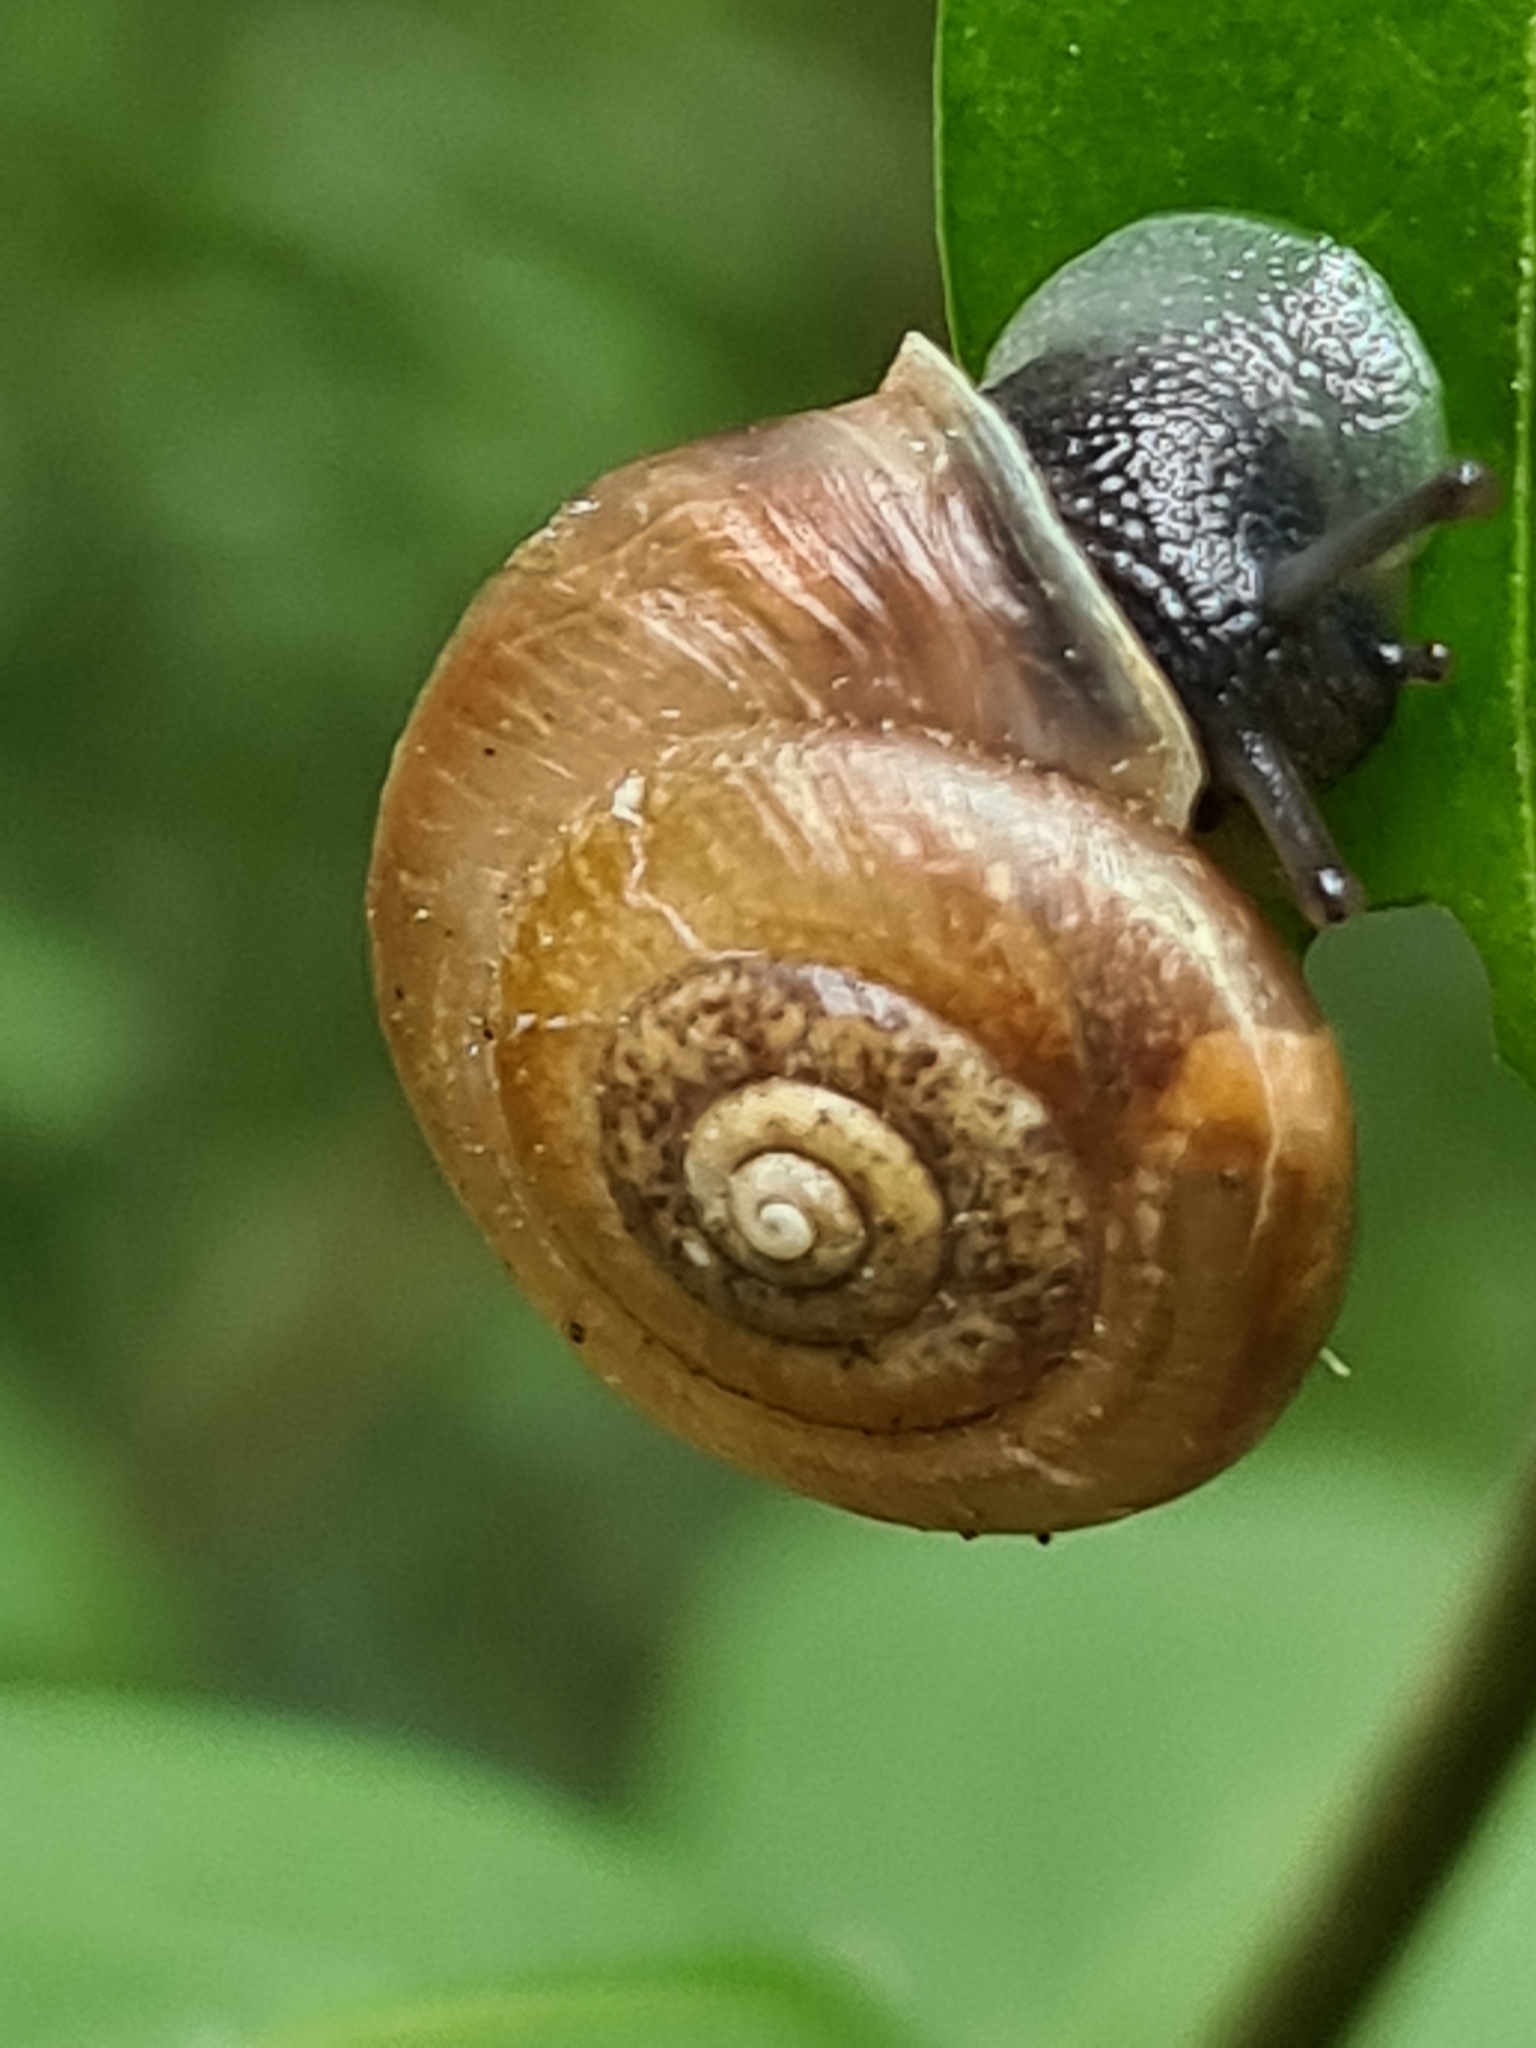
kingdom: Animalia
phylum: Mollusca
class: Gastropoda
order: Stylommatophora
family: Hygromiidae
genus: Urticicola
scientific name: Urticicola umbrosus
